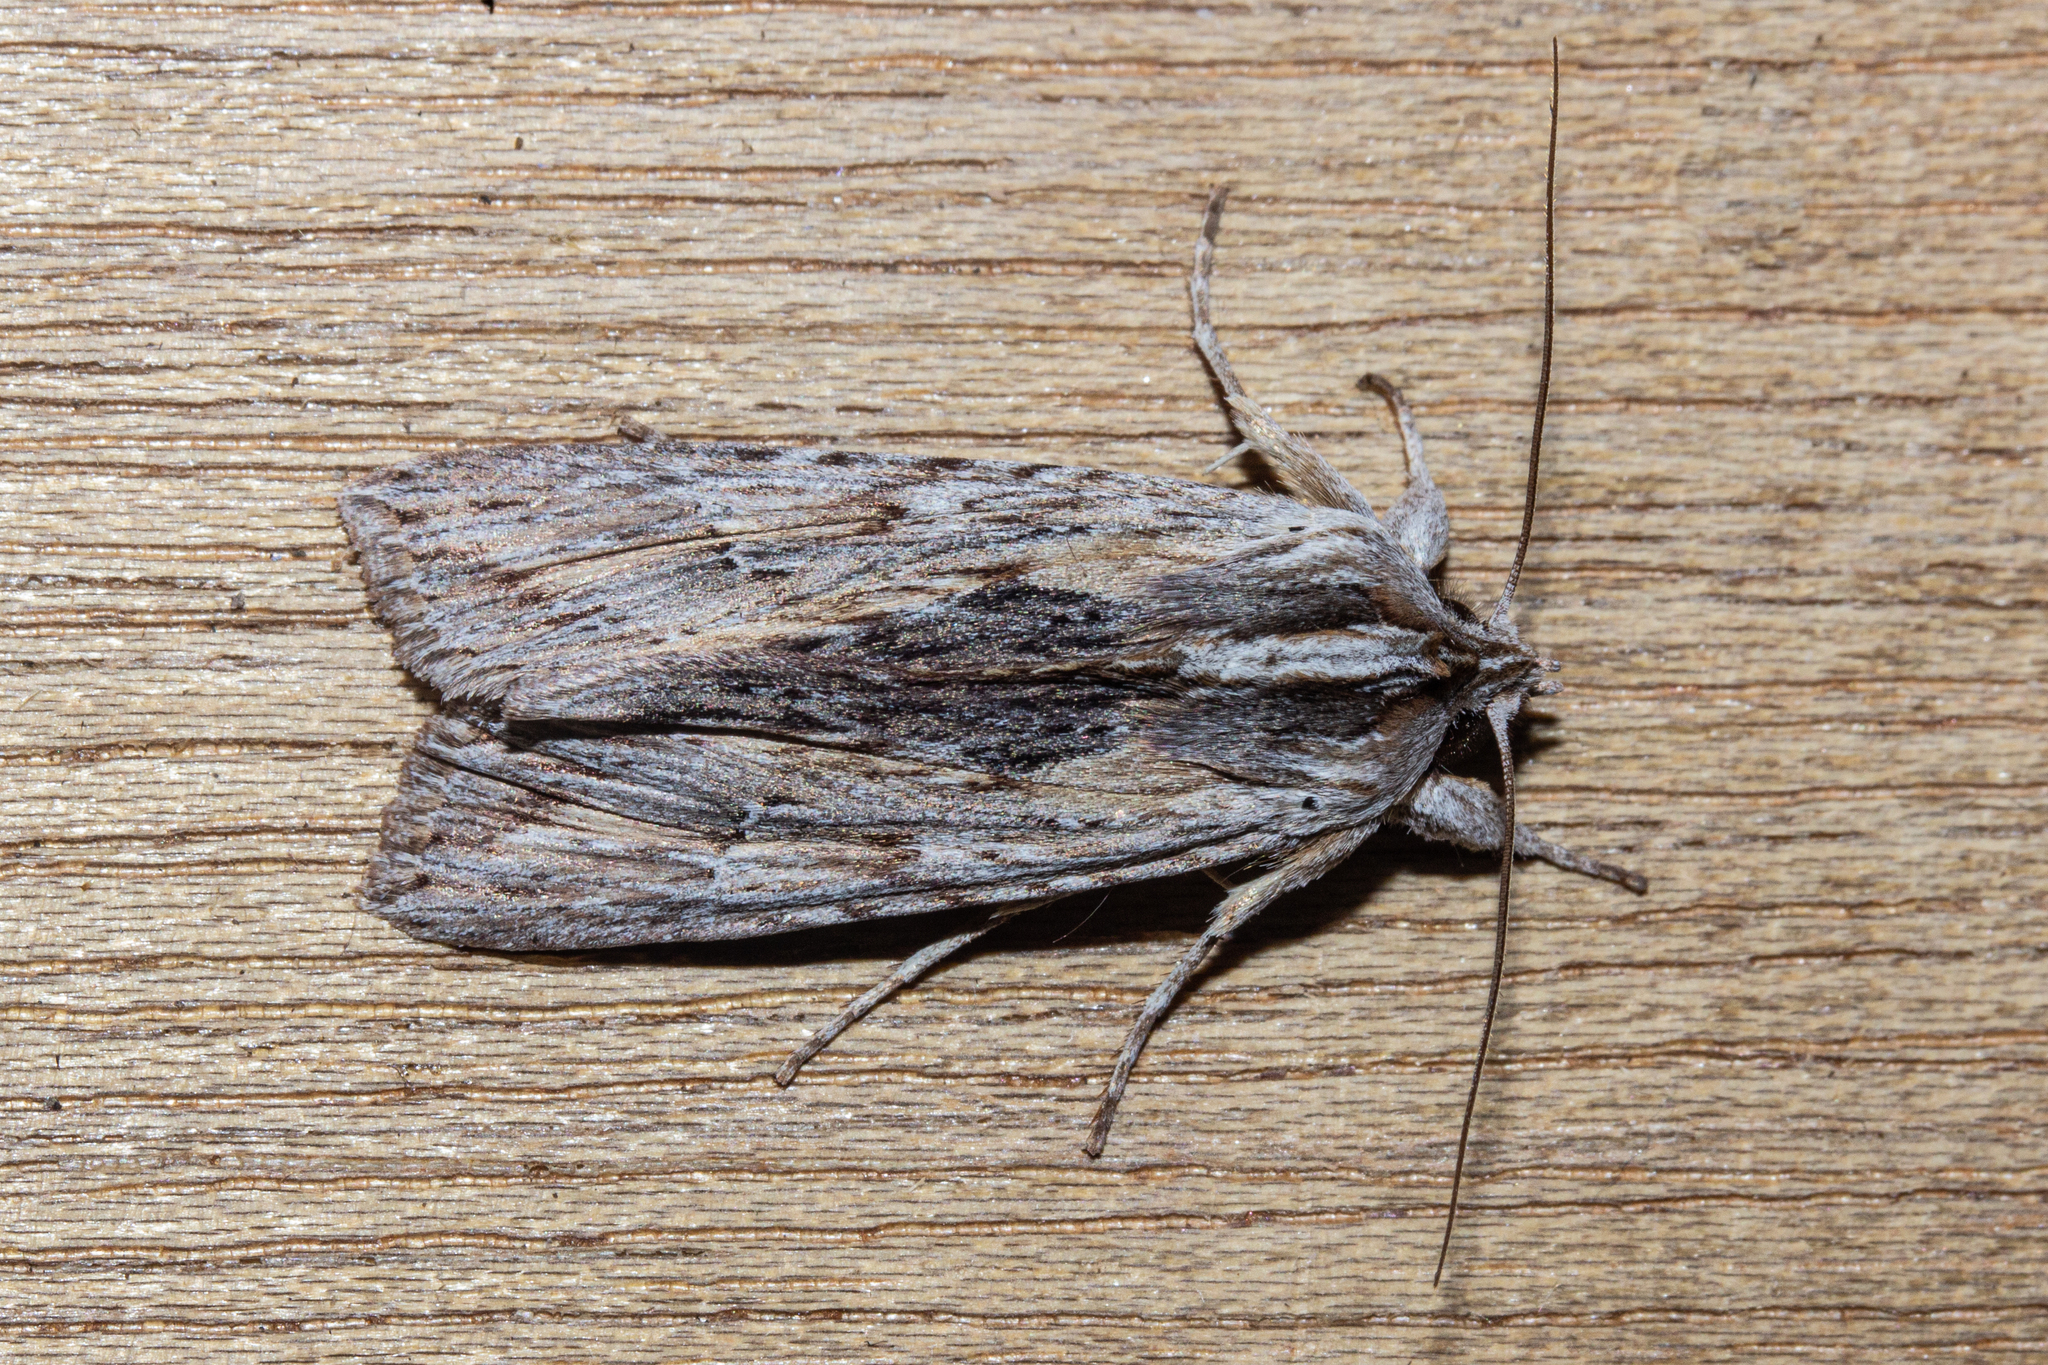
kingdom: Animalia
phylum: Arthropoda
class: Insecta
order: Lepidoptera
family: Noctuidae
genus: Physetica
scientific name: Physetica prionistis
